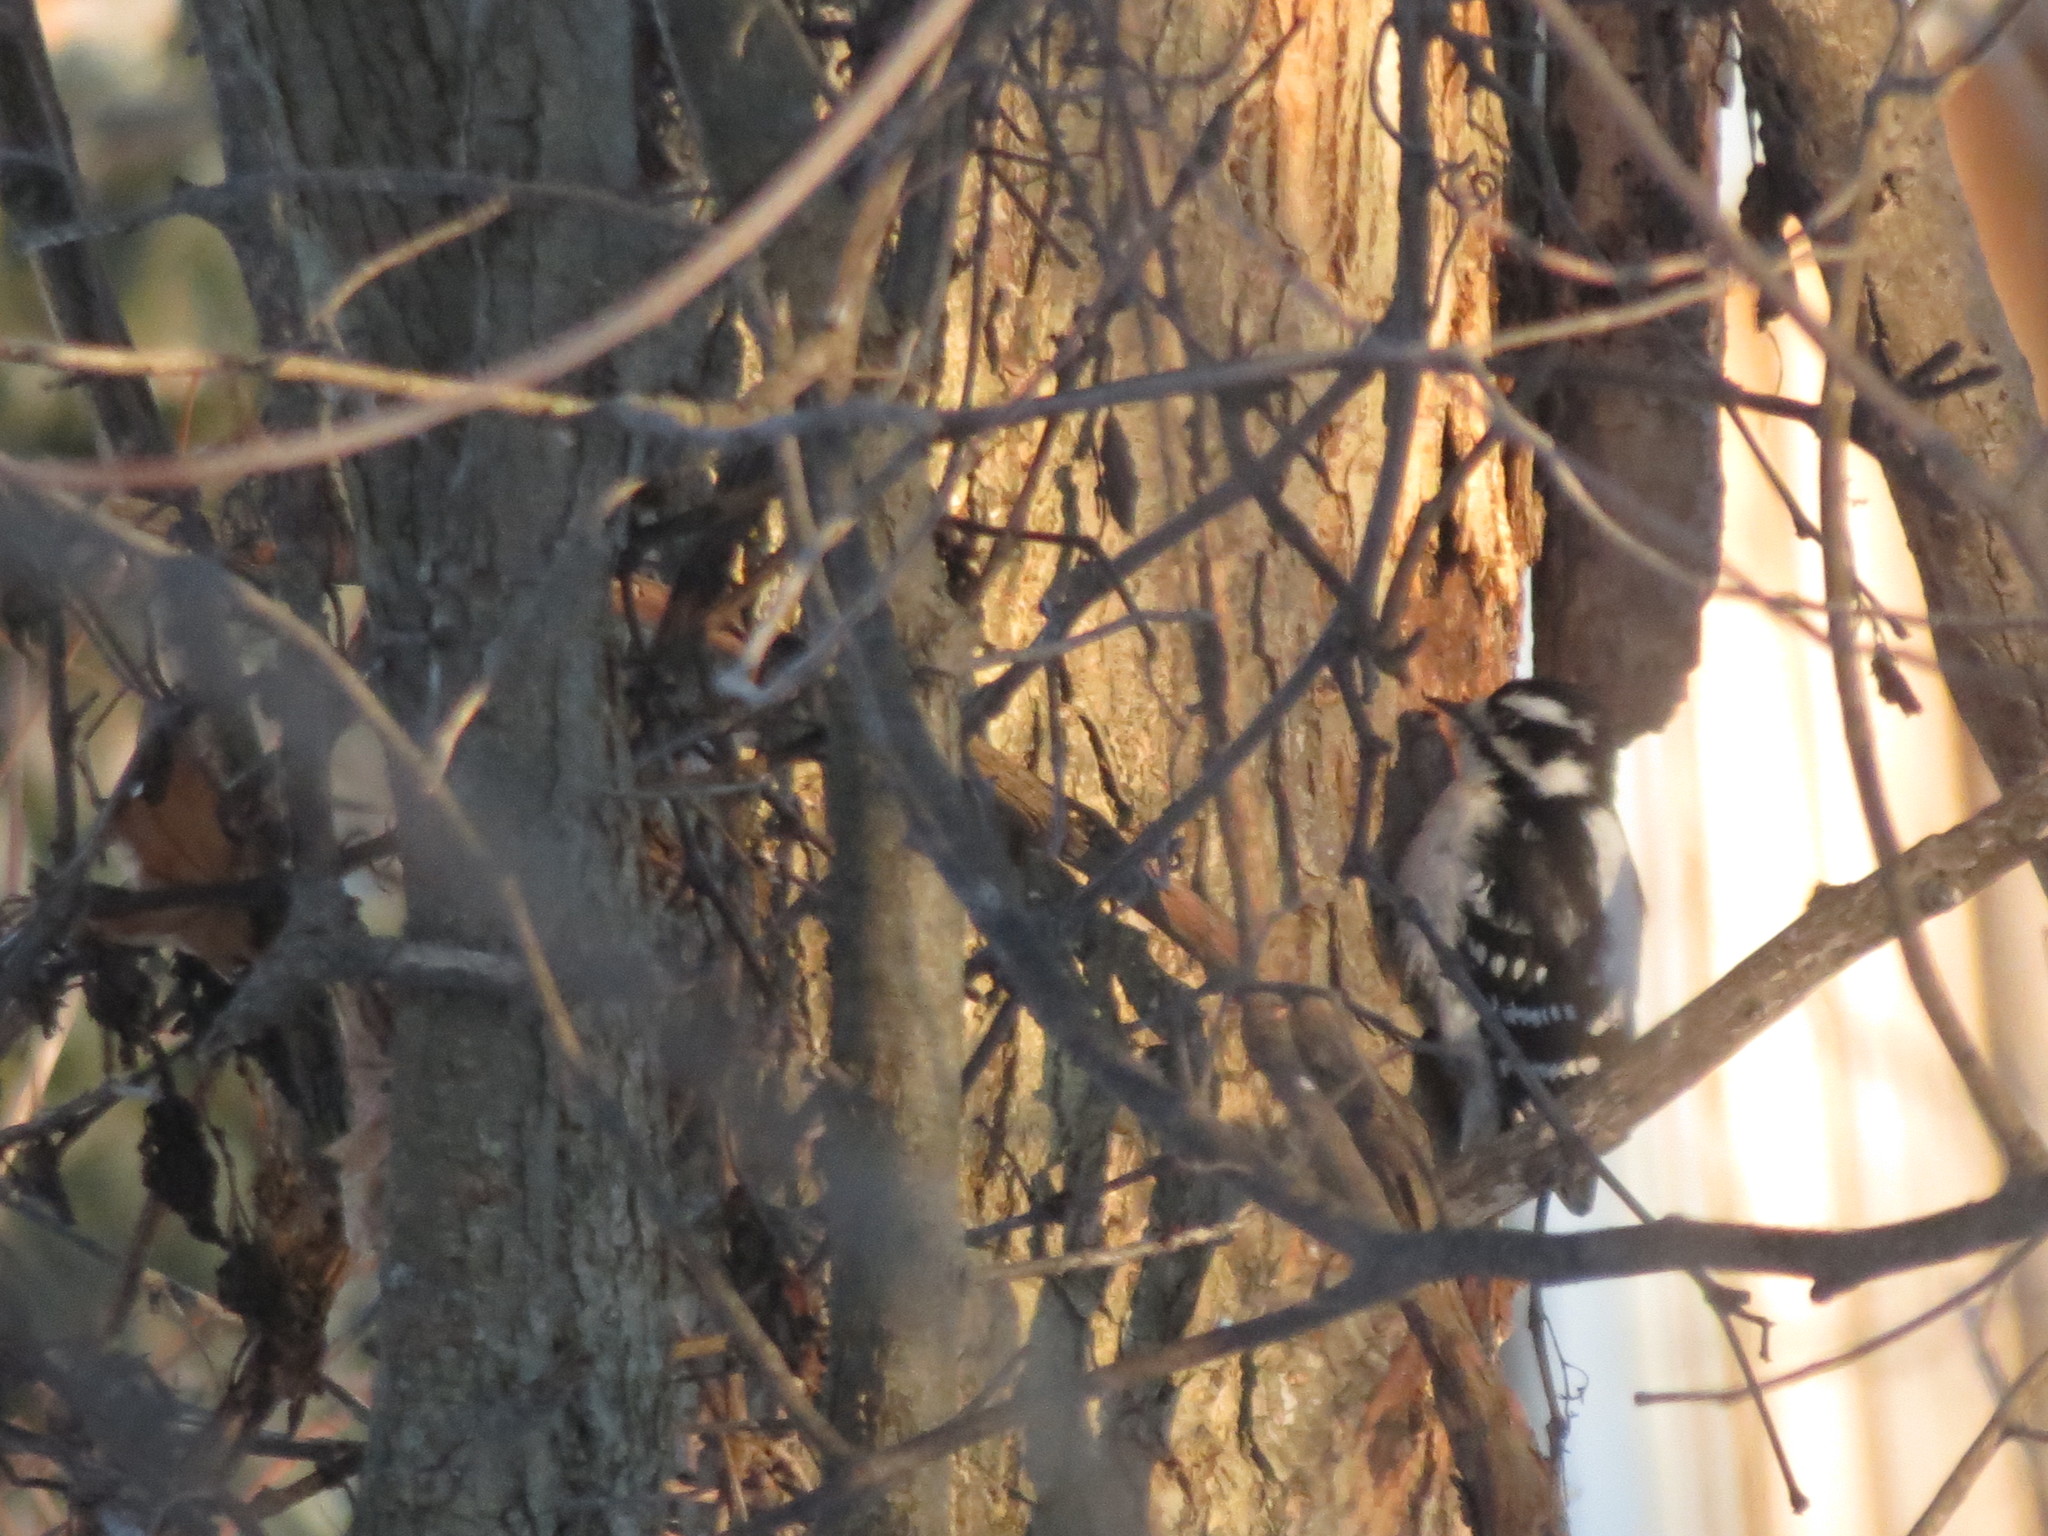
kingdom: Animalia
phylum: Chordata
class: Aves
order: Piciformes
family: Picidae
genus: Dryobates
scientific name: Dryobates pubescens
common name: Downy woodpecker
